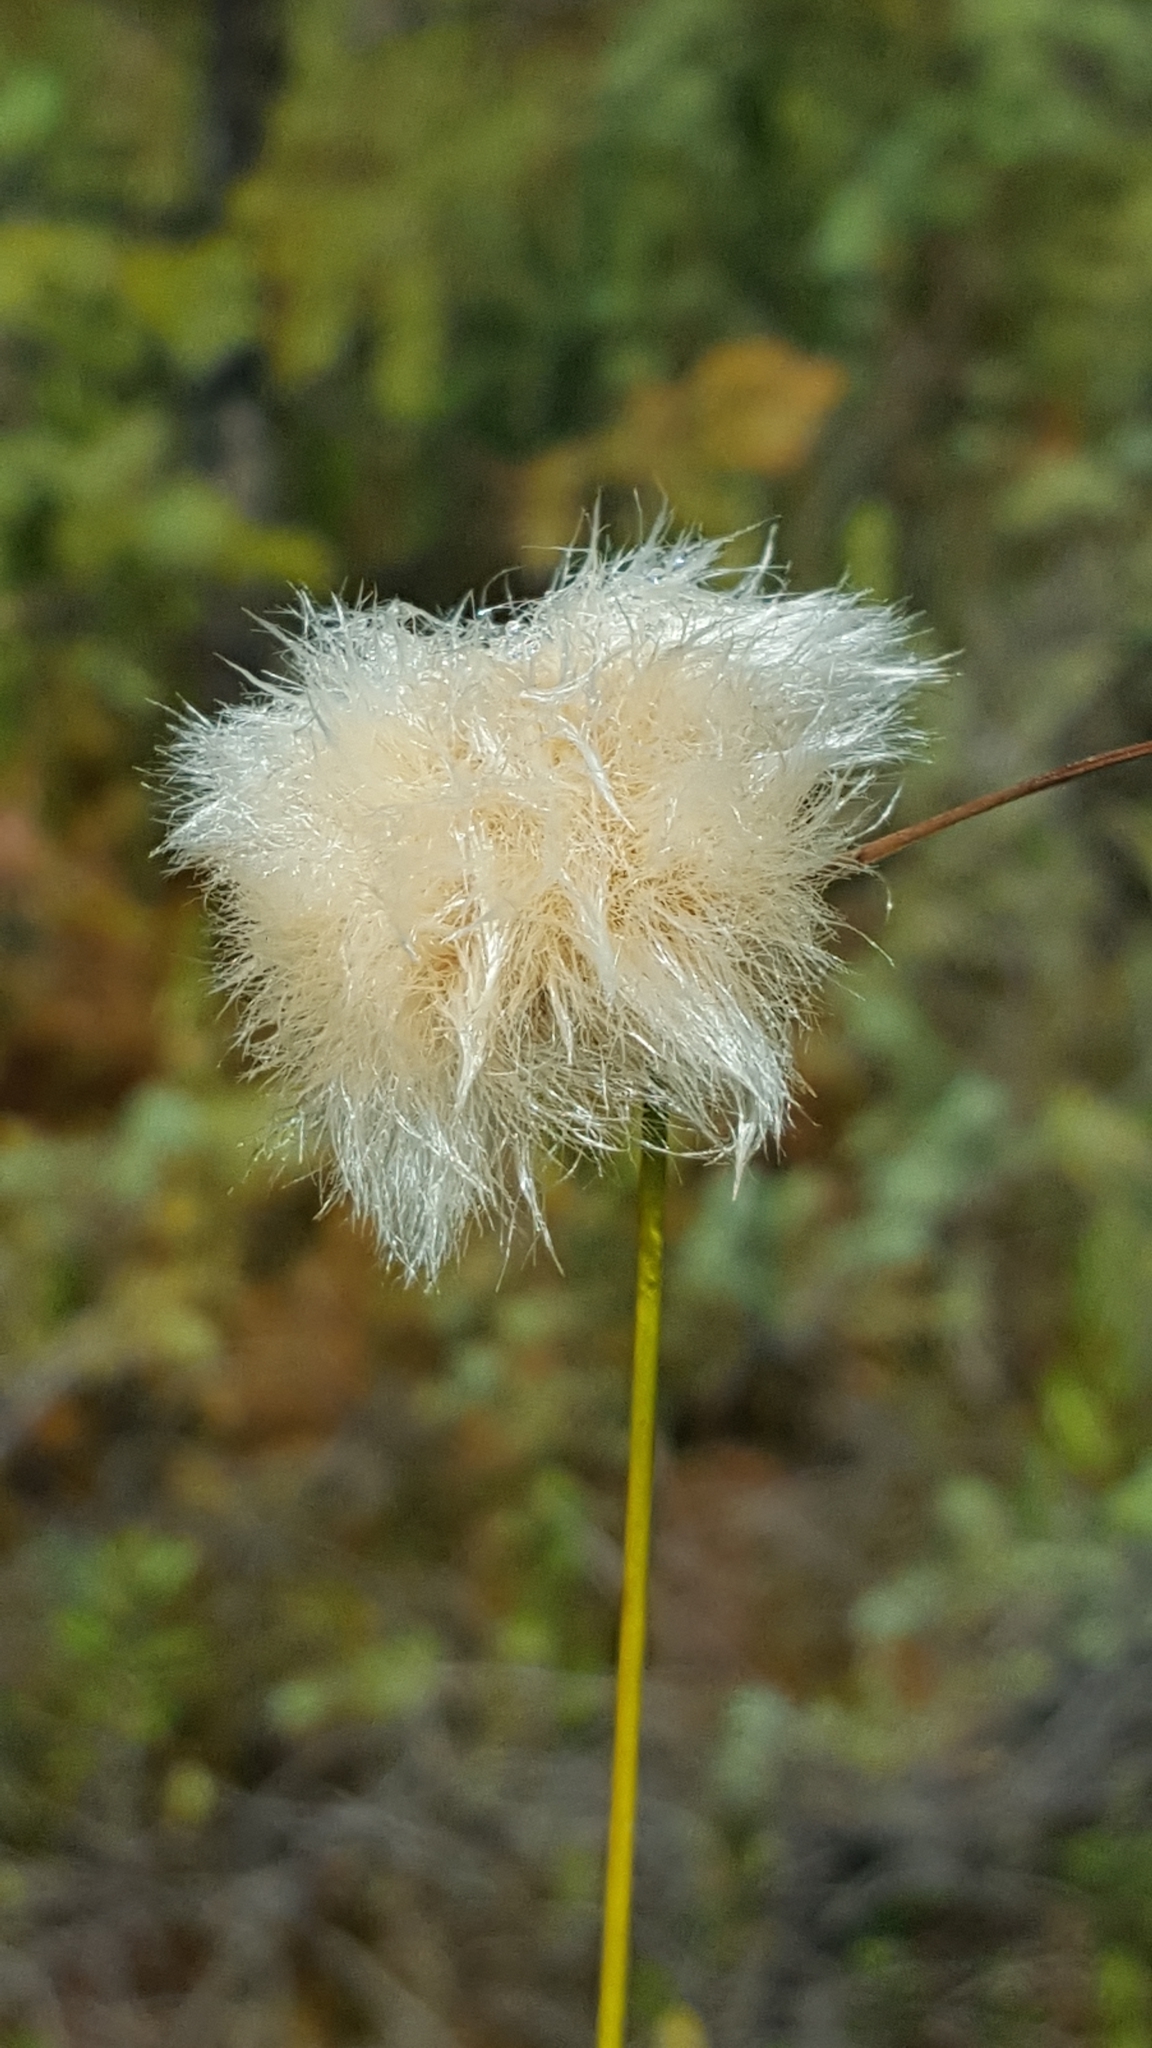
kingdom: Plantae
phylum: Tracheophyta
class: Liliopsida
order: Poales
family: Cyperaceae
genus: Eriophorum
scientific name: Eriophorum virginicum
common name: Tawny cottongrass
